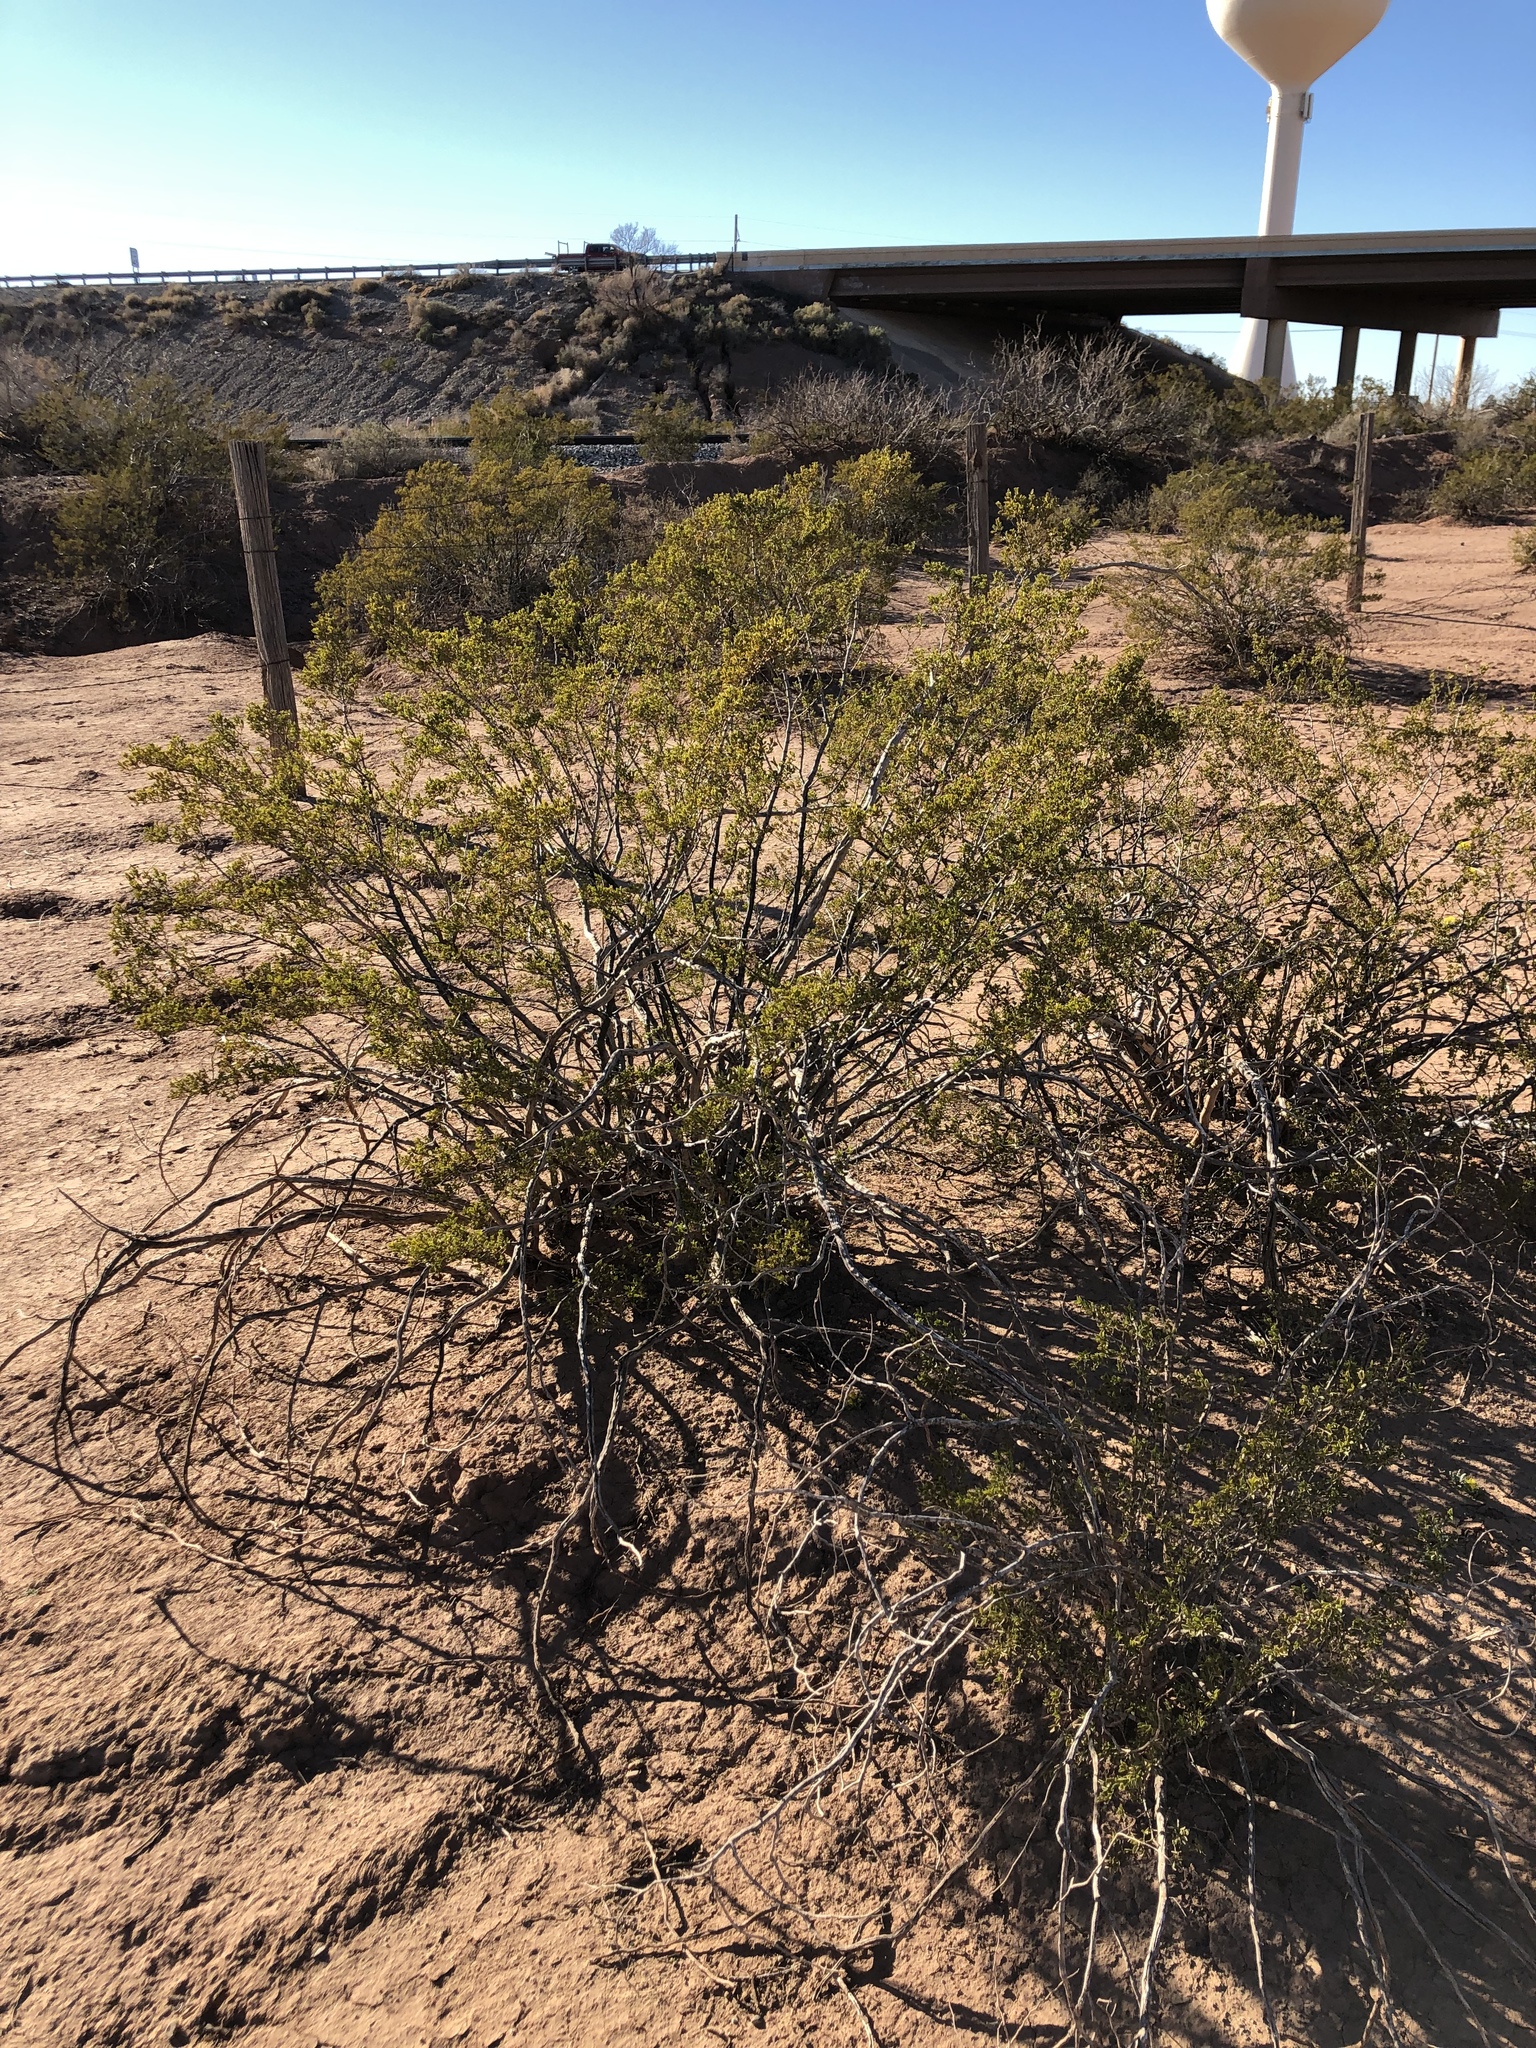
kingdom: Plantae
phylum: Tracheophyta
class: Magnoliopsida
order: Zygophyllales
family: Zygophyllaceae
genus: Larrea
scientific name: Larrea tridentata
